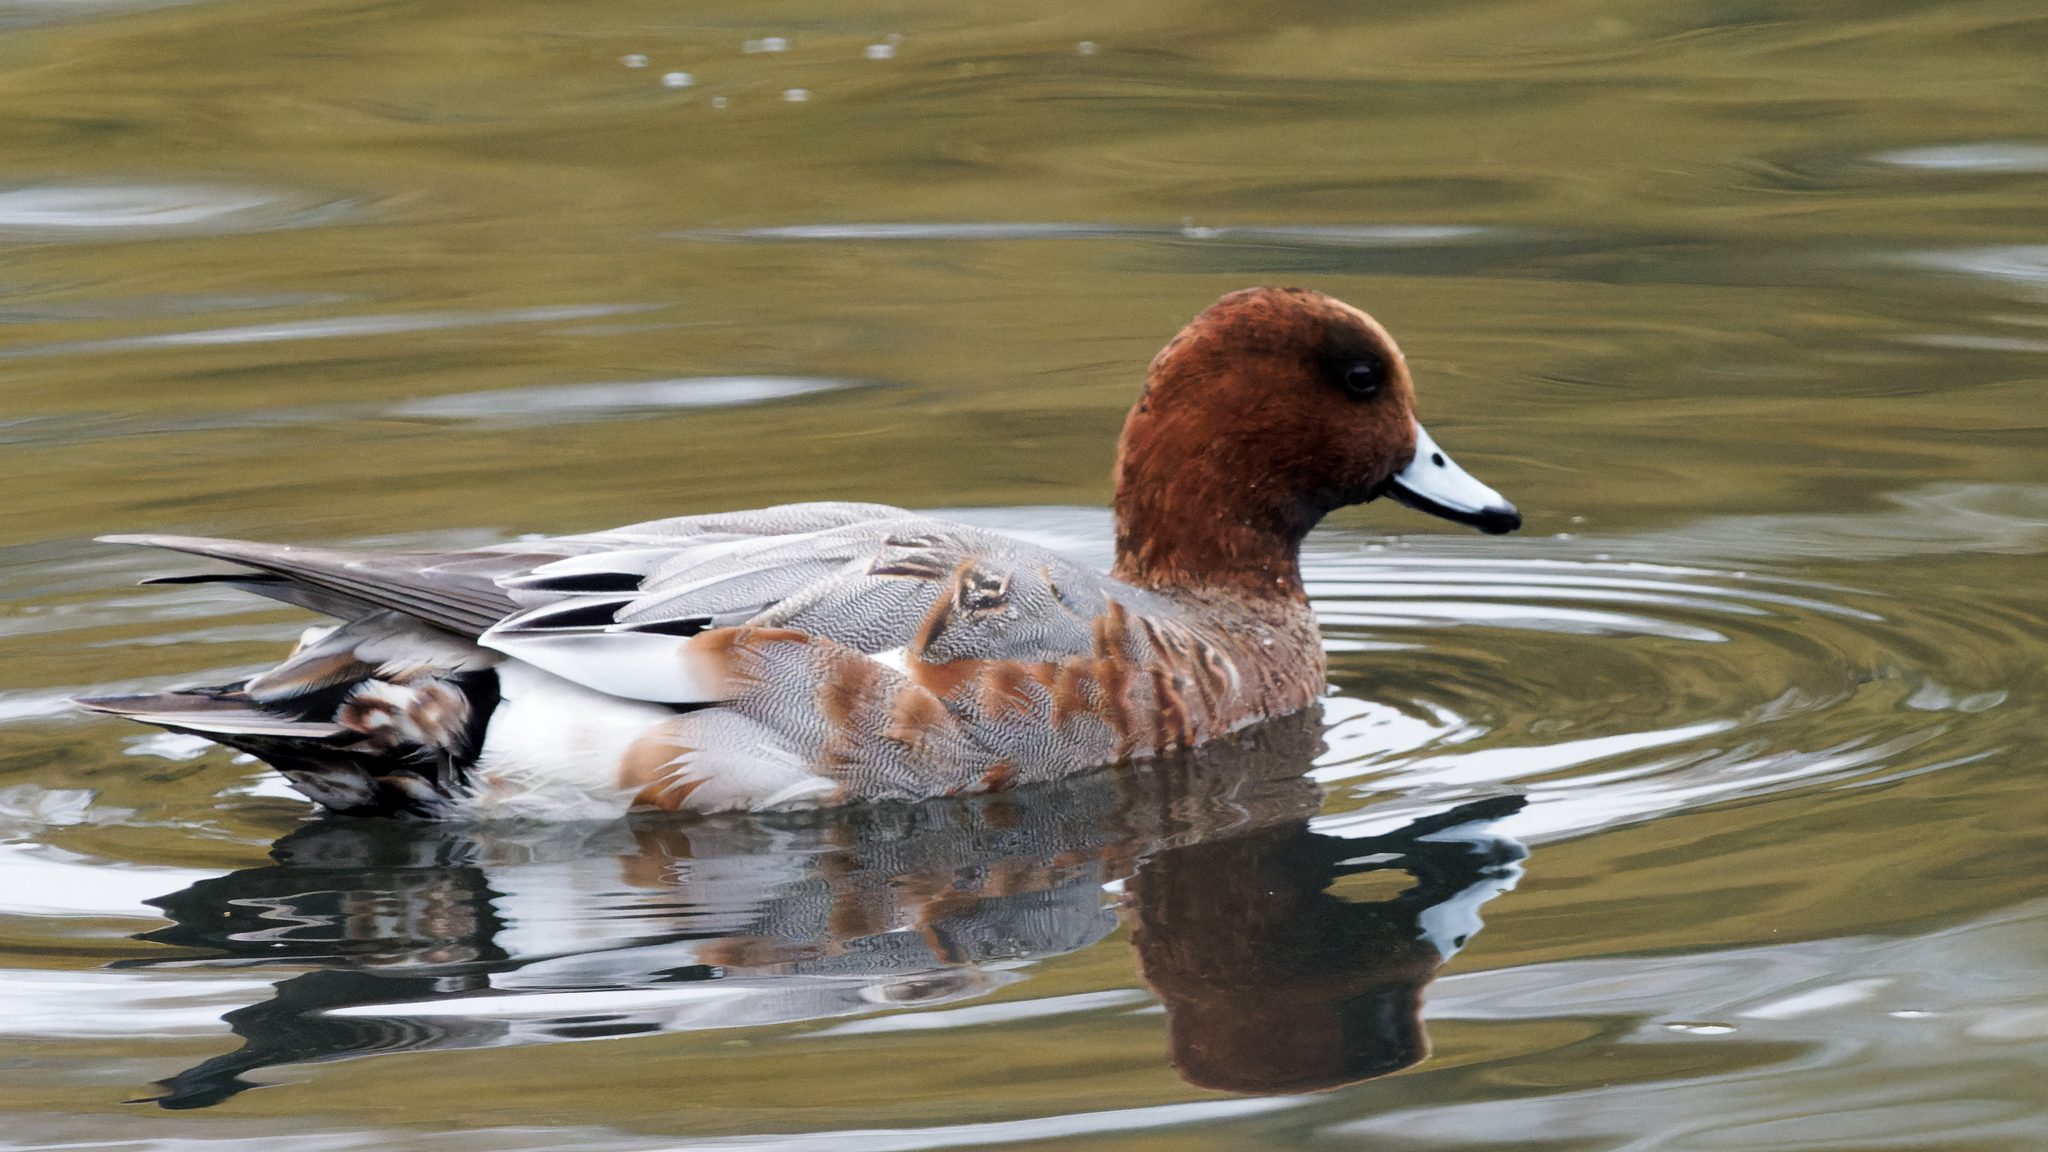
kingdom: Animalia
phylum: Chordata
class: Aves
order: Anseriformes
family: Anatidae
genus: Mareca
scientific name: Mareca penelope
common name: Eurasian wigeon
